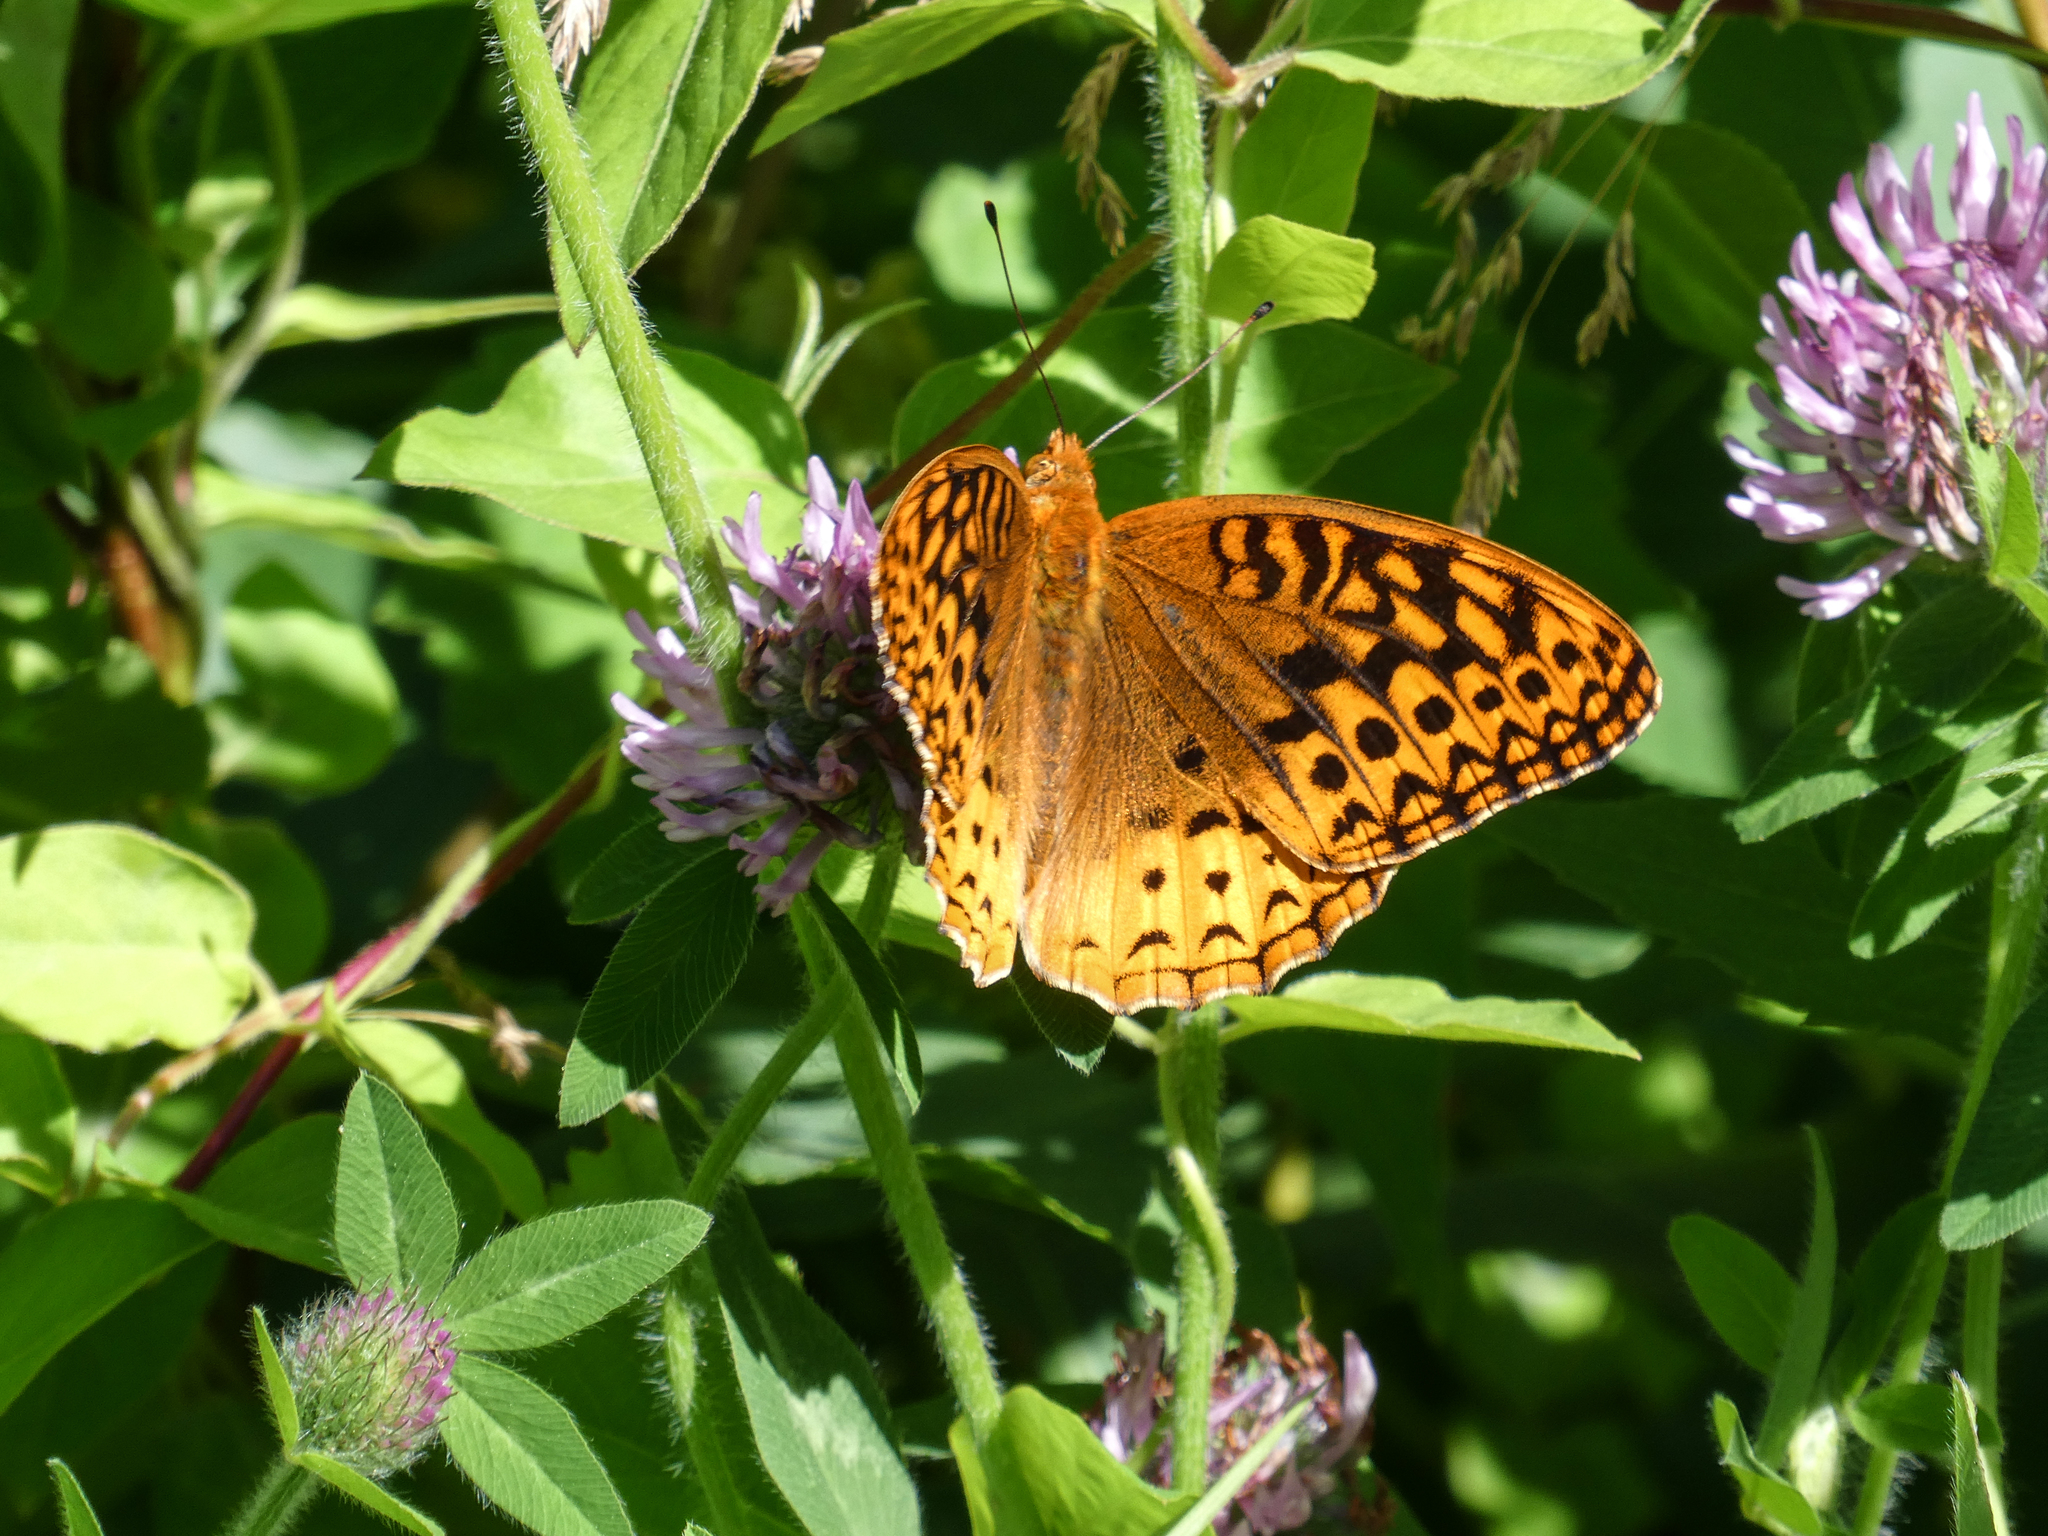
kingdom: Animalia
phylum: Arthropoda
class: Insecta
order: Lepidoptera
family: Nymphalidae
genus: Speyeria
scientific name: Speyeria cybele
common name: Great spangled fritillary
